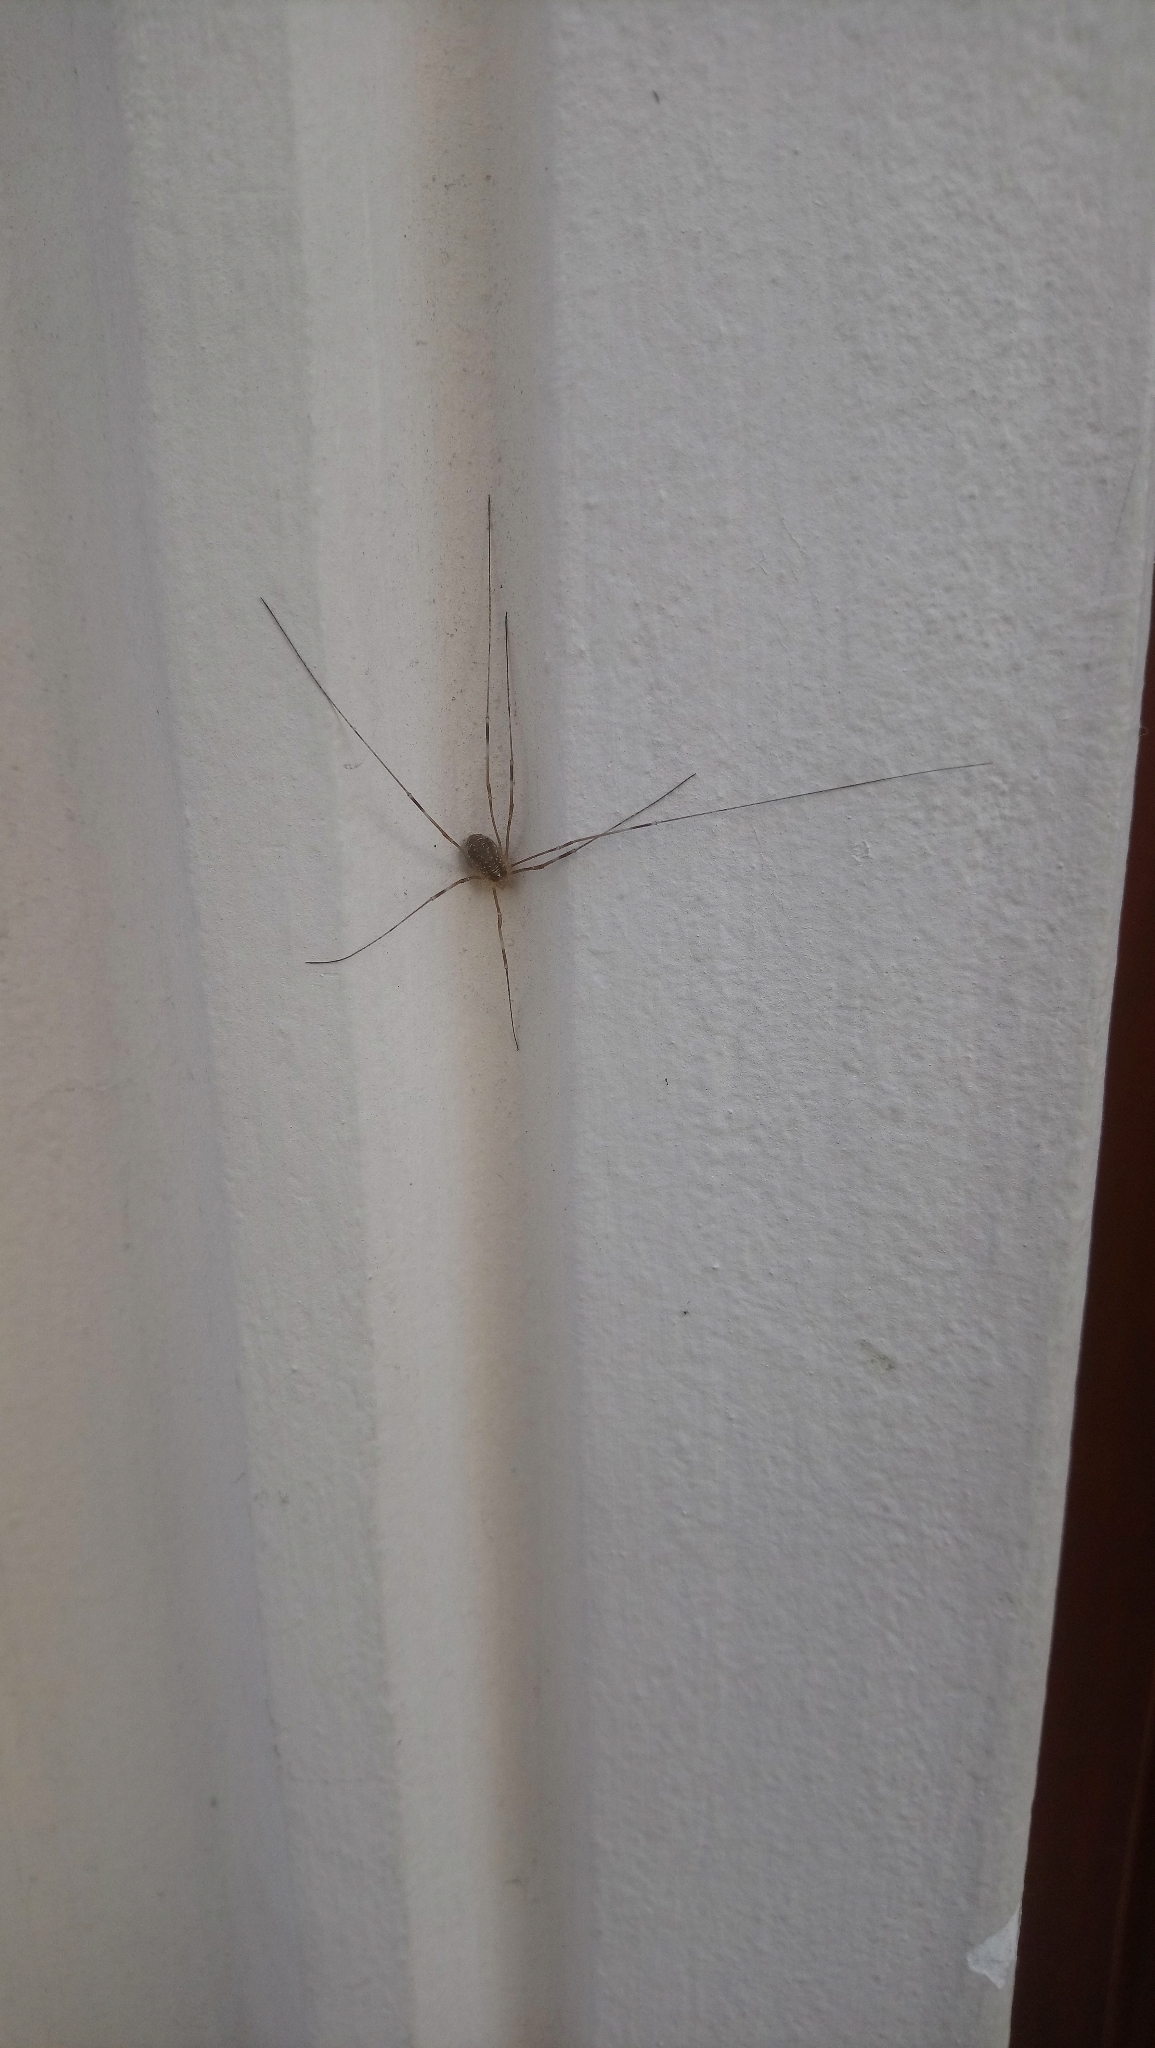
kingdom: Animalia
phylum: Arthropoda
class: Arachnida
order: Opiliones
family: Phalangiidae
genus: Opilio
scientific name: Opilio canestrinii
